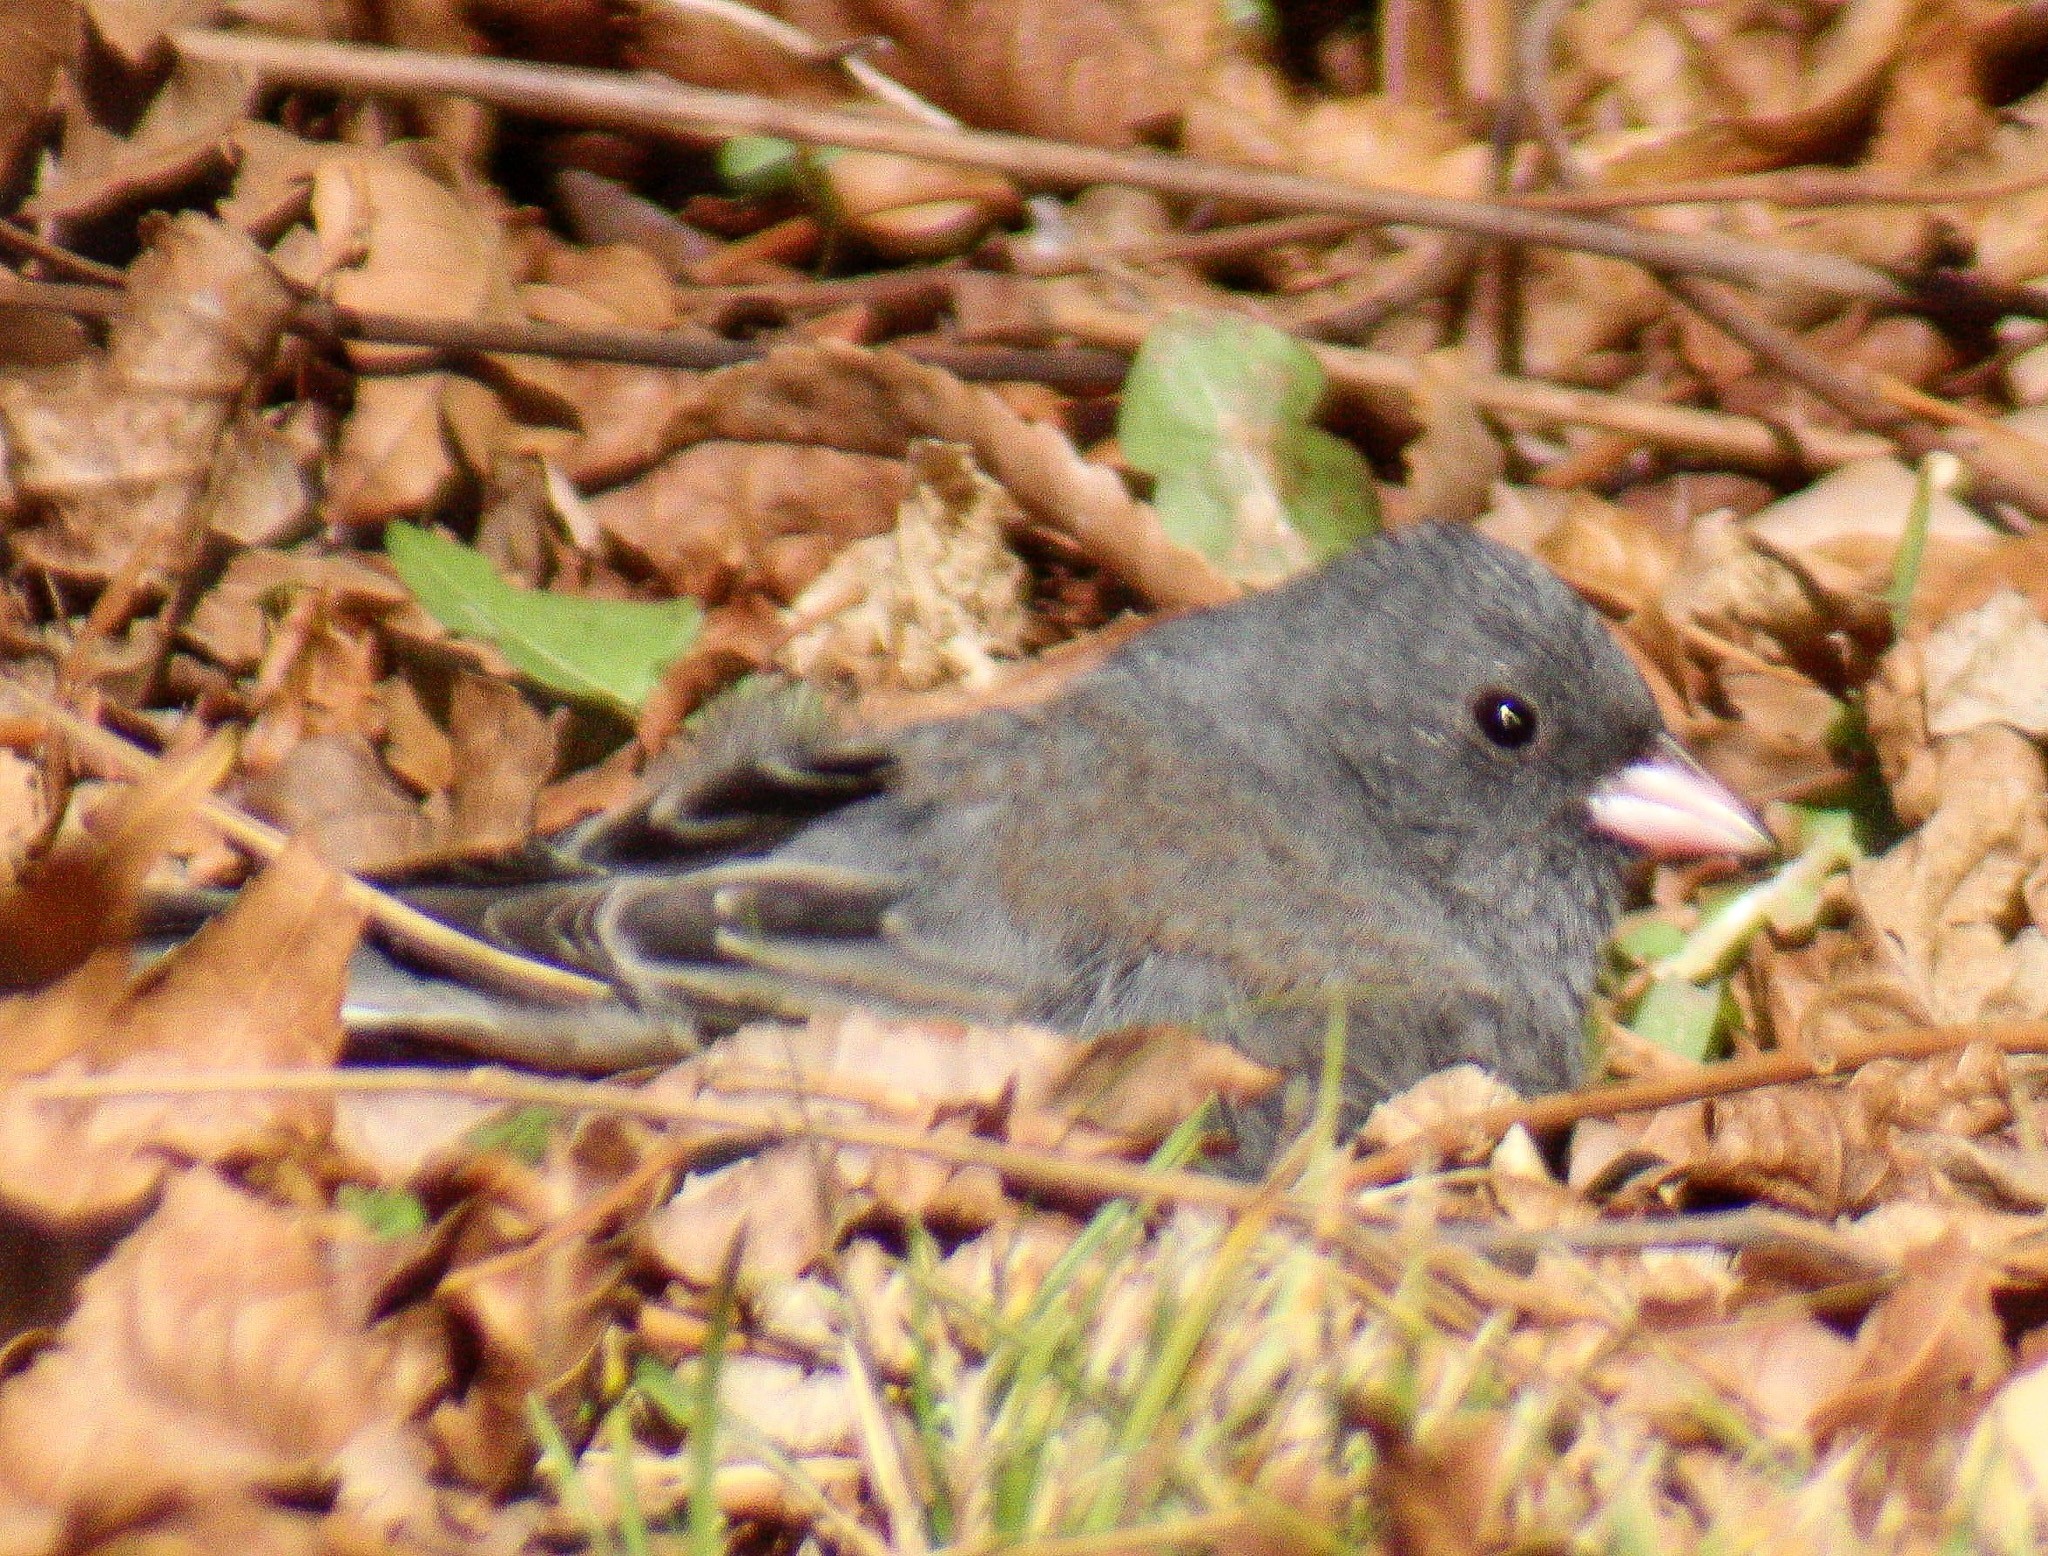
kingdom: Animalia
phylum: Chordata
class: Aves
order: Passeriformes
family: Passerellidae
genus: Junco
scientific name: Junco hyemalis
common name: Dark-eyed junco
